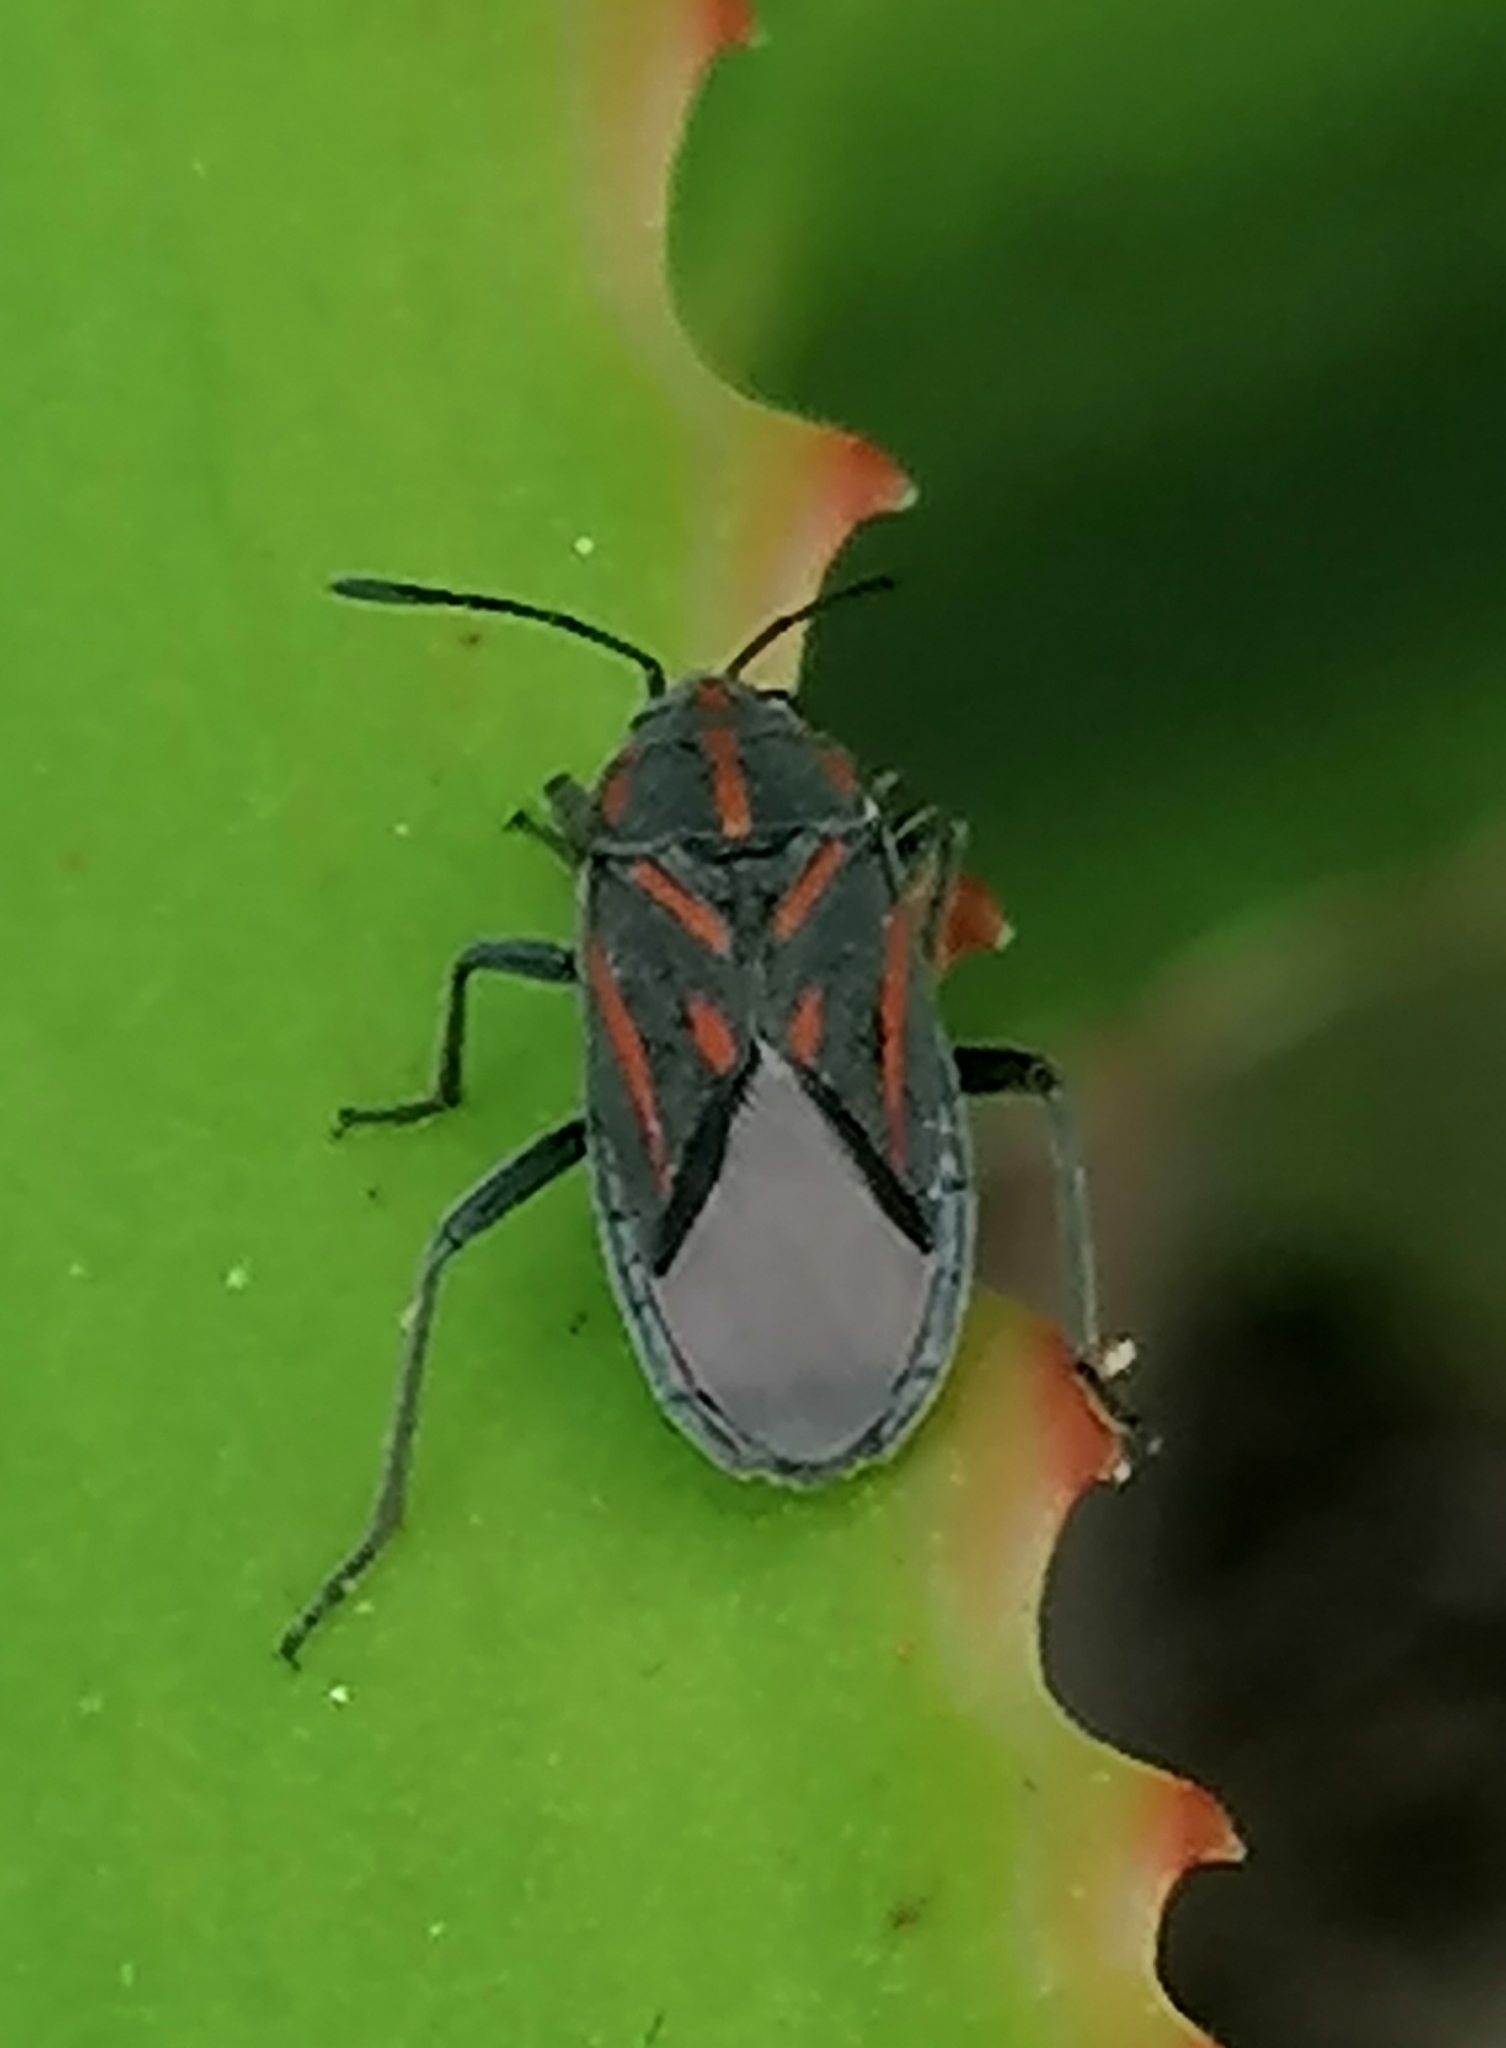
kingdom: Animalia
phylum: Arthropoda
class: Insecta
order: Hemiptera
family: Lygaeidae
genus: Spilostethus
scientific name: Spilostethus trilineatus
